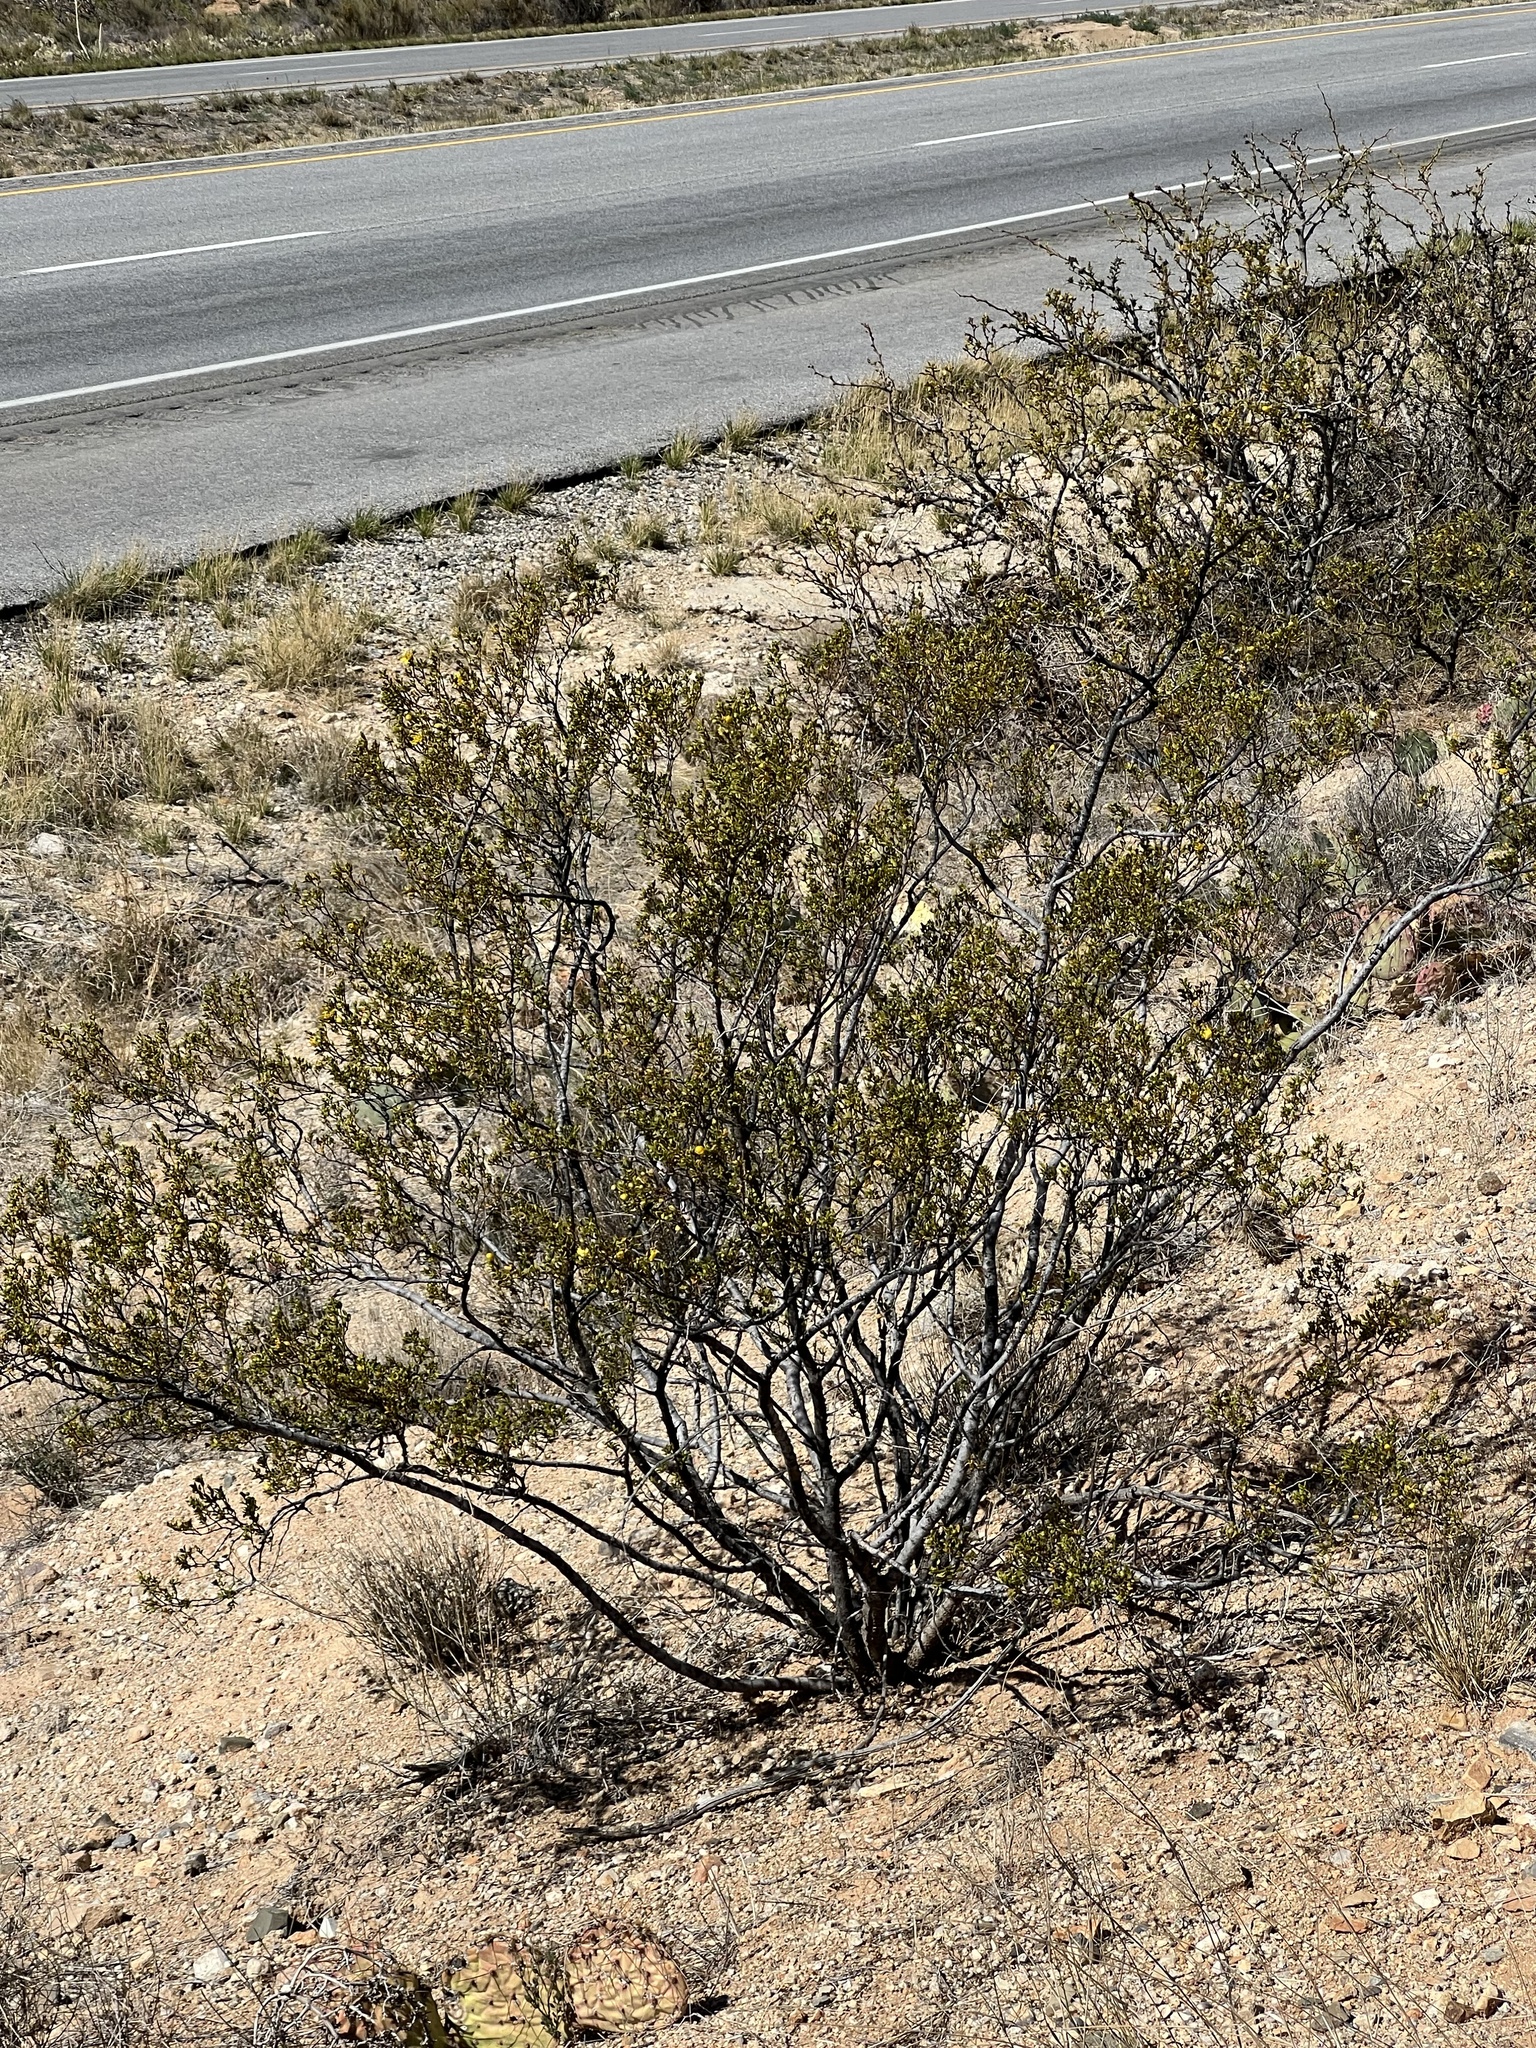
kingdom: Plantae
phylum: Tracheophyta
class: Magnoliopsida
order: Zygophyllales
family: Zygophyllaceae
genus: Larrea
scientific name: Larrea tridentata
